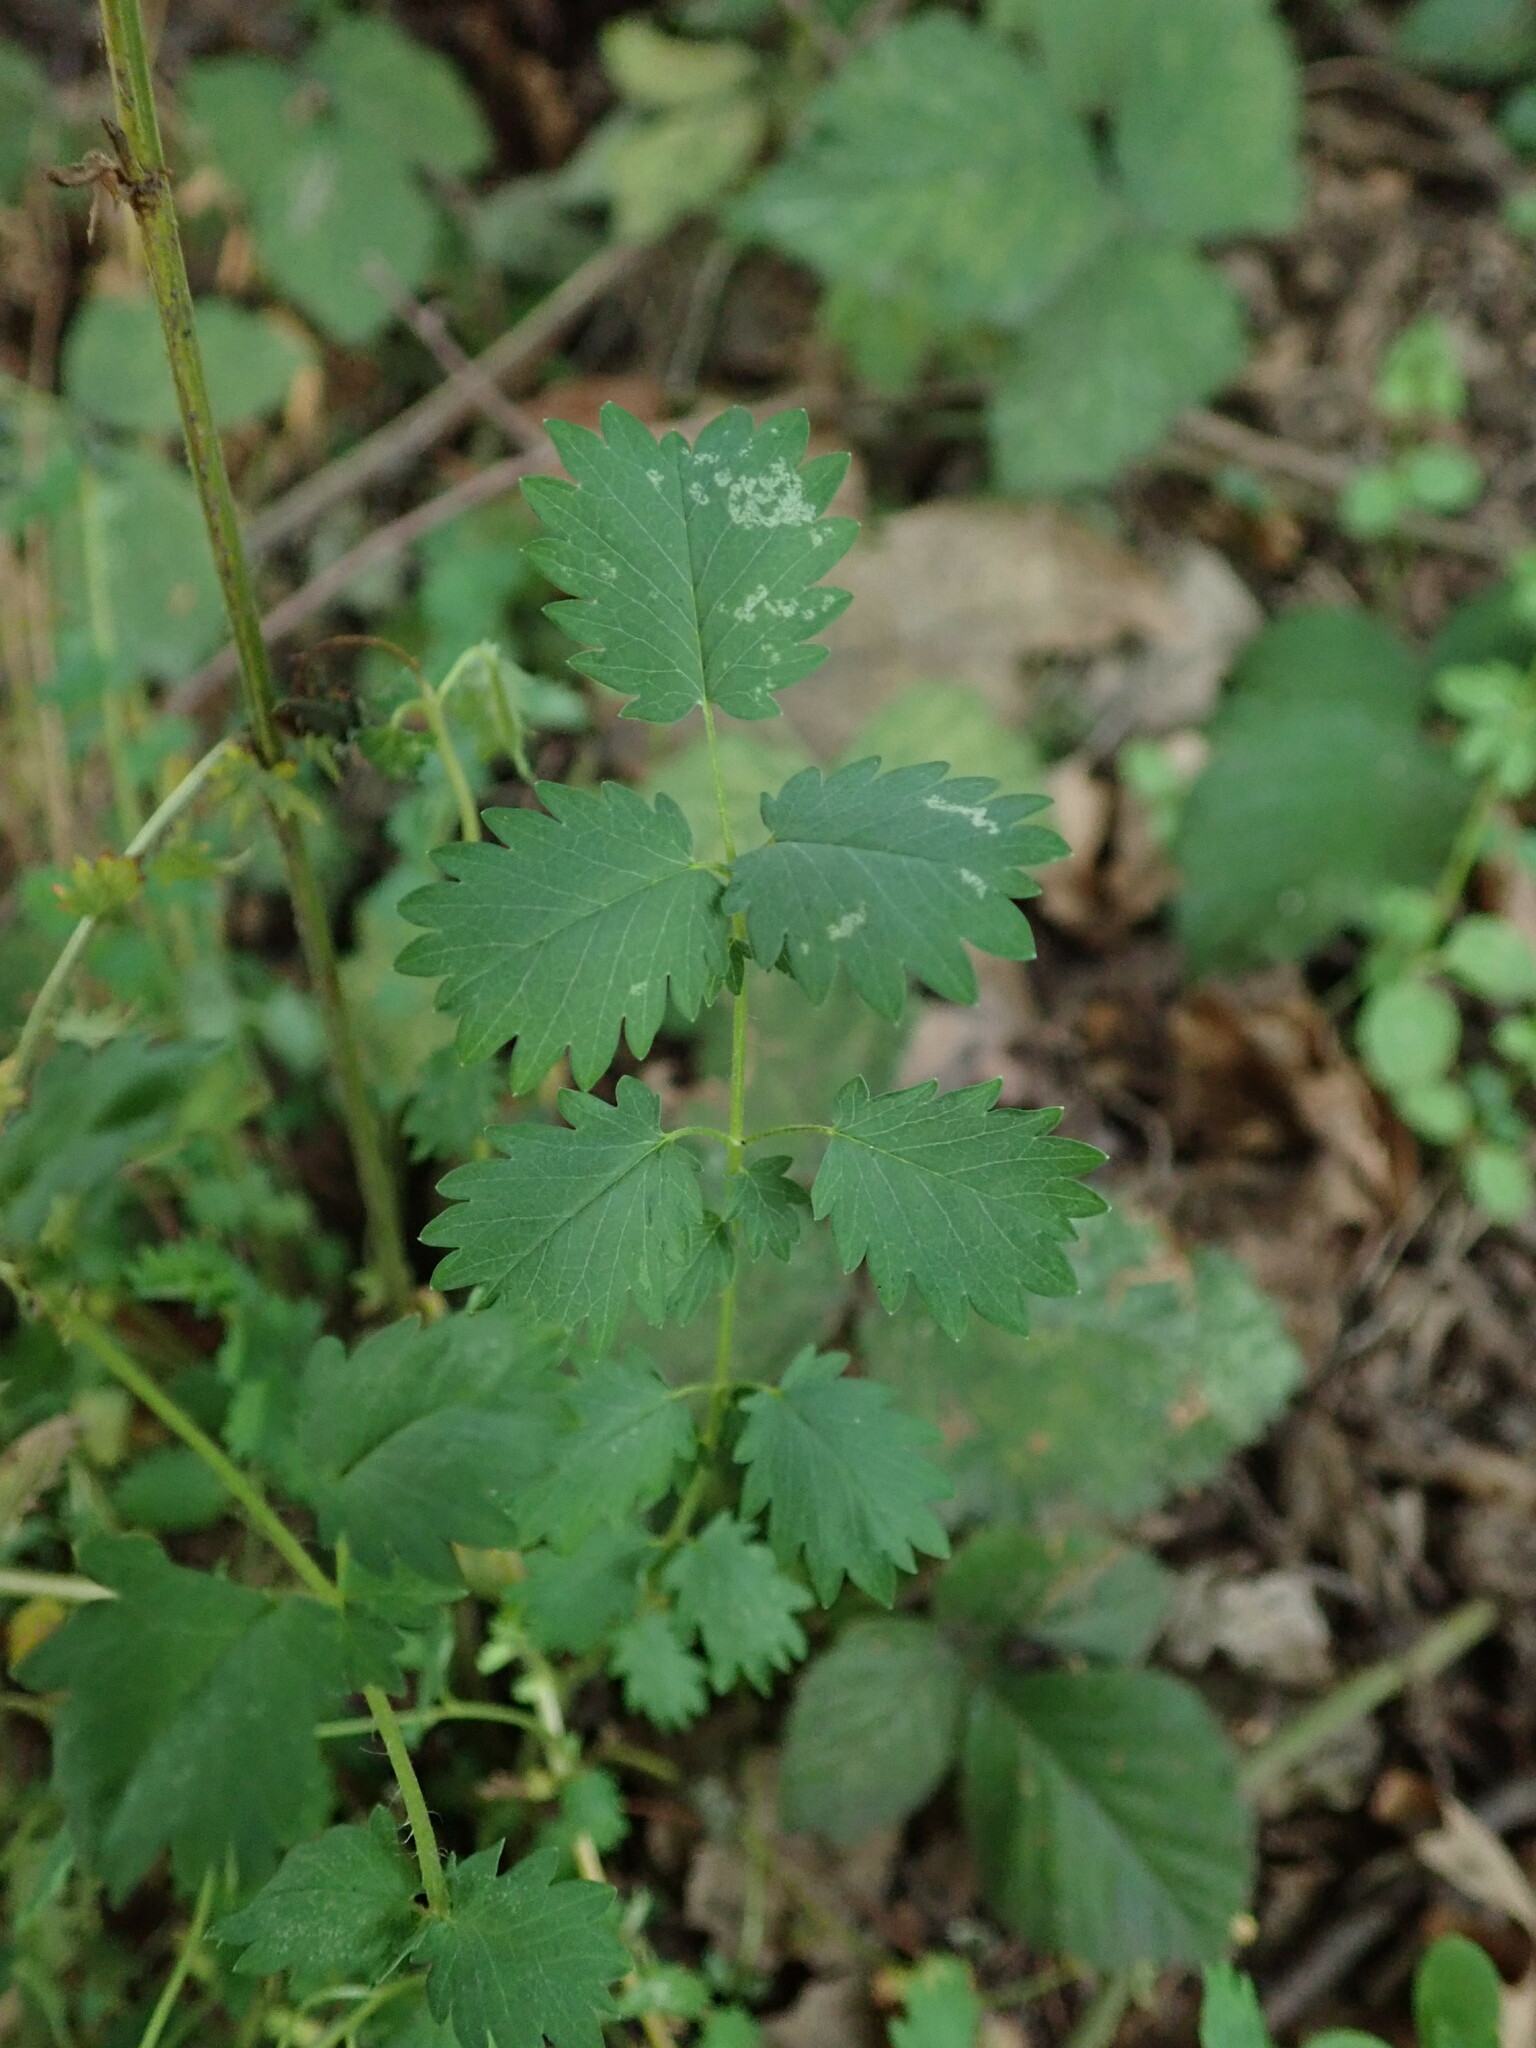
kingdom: Plantae
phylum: Tracheophyta
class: Magnoliopsida
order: Rosales
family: Rosaceae
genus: Poterium
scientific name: Poterium sanguisorba
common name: Salad burnet
